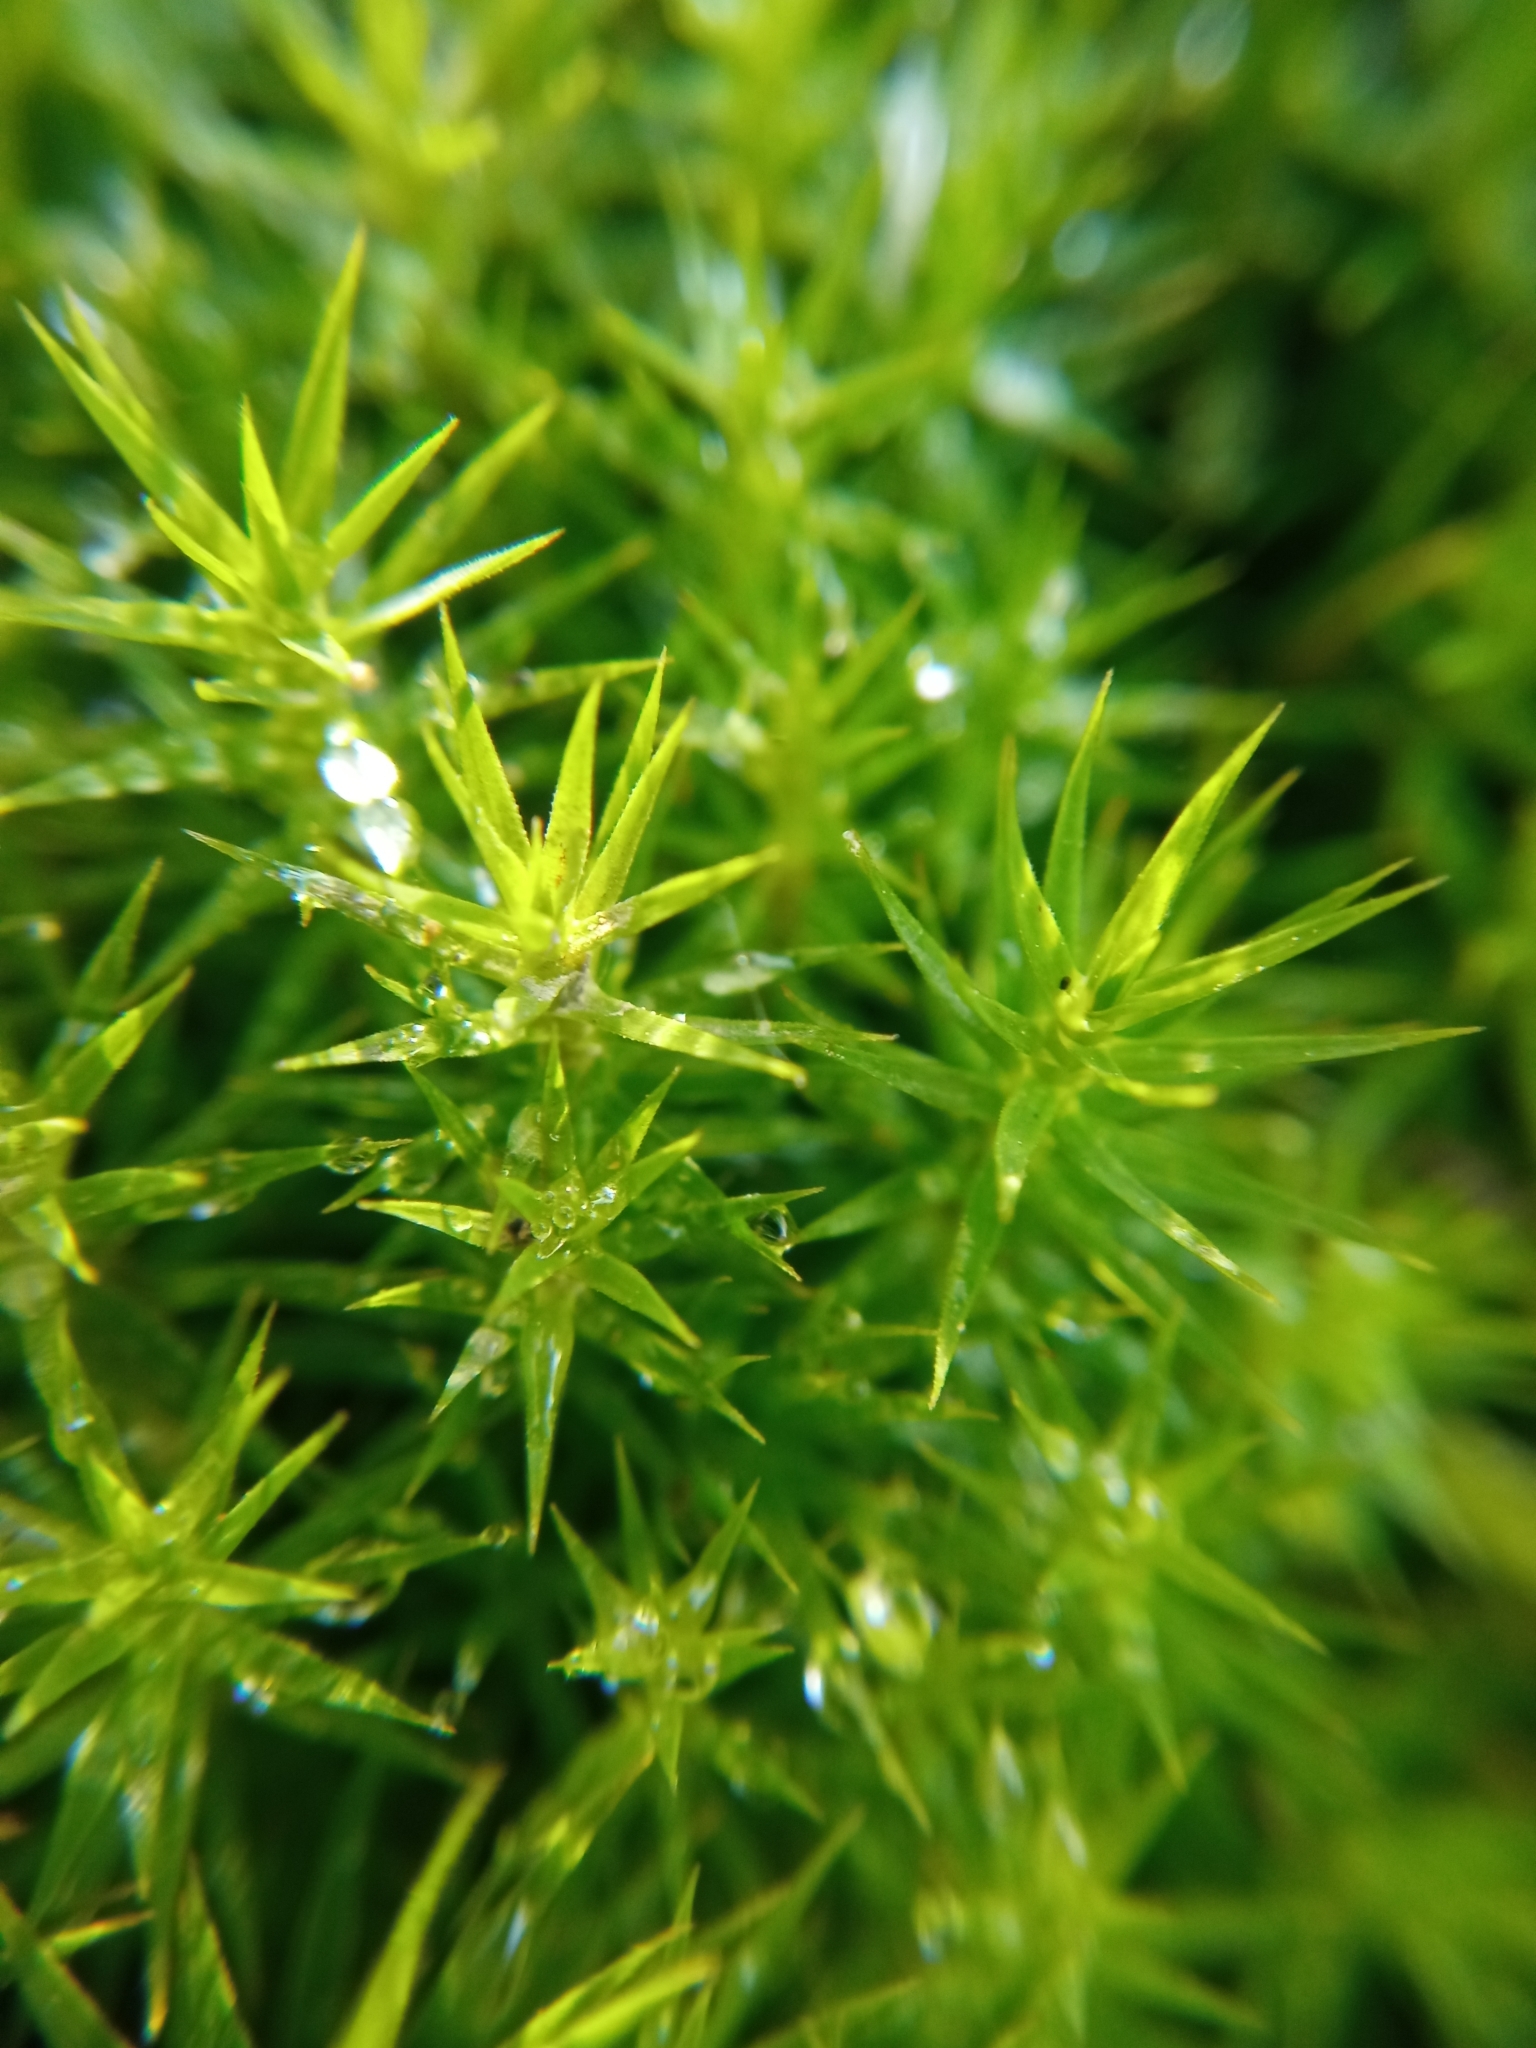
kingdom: Plantae
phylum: Bryophyta
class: Polytrichopsida
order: Polytrichales
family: Polytrichaceae
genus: Polytrichum
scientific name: Polytrichum formosum
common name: Bank haircap moss
